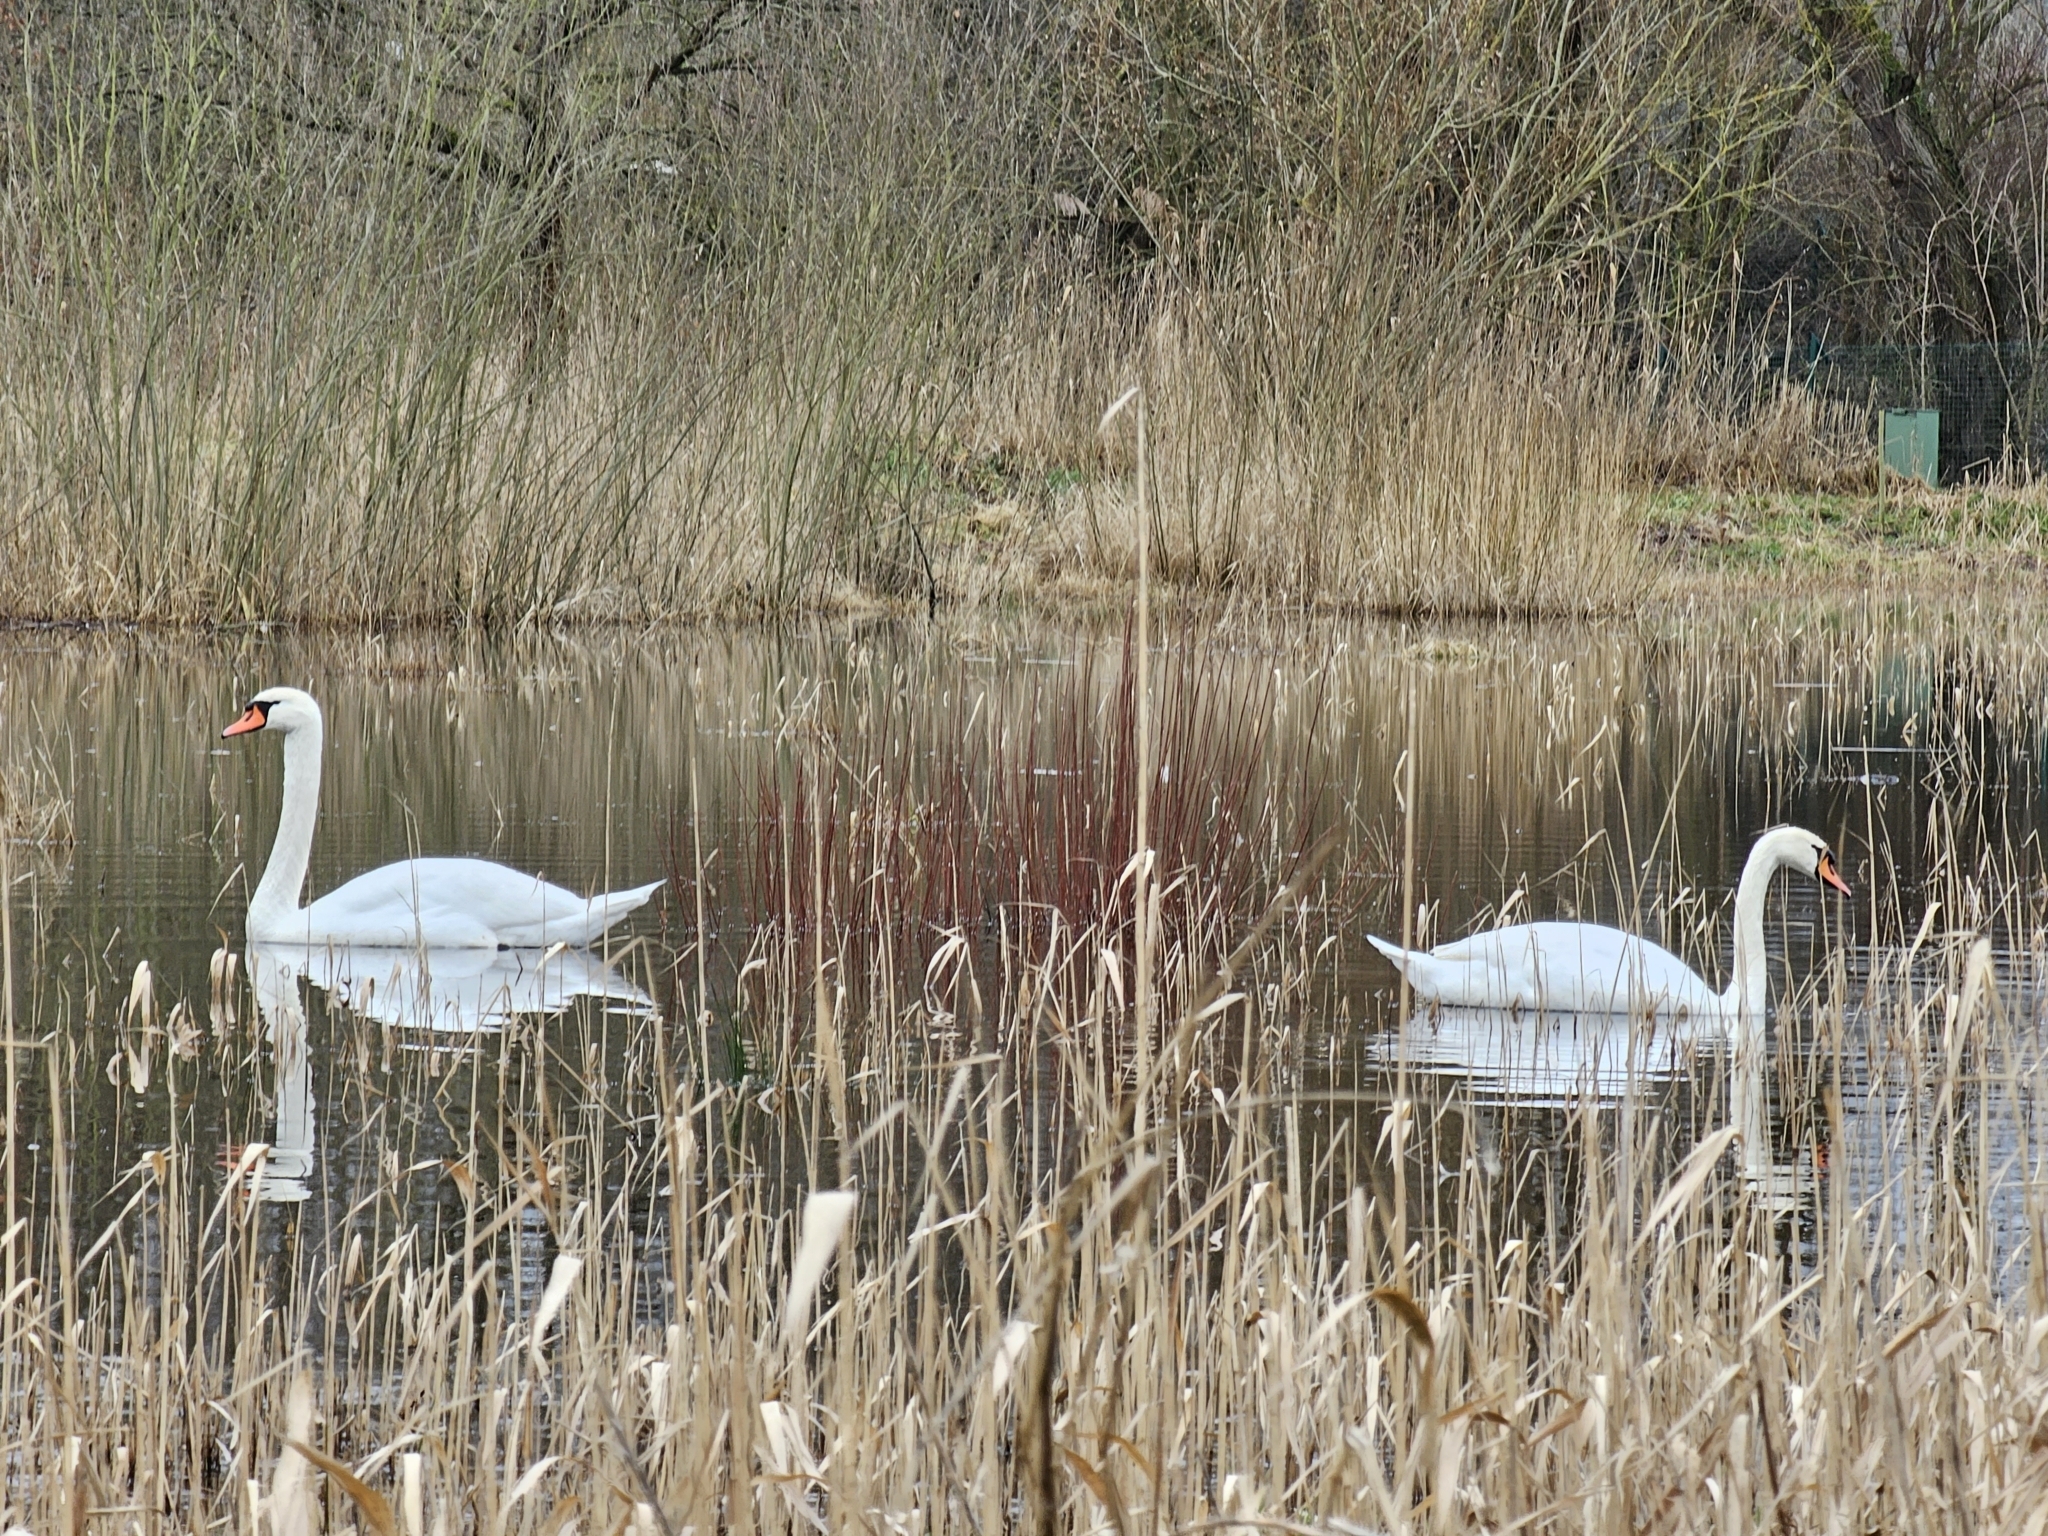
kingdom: Animalia
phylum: Chordata
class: Aves
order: Anseriformes
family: Anatidae
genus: Cygnus
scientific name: Cygnus olor
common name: Mute swan
